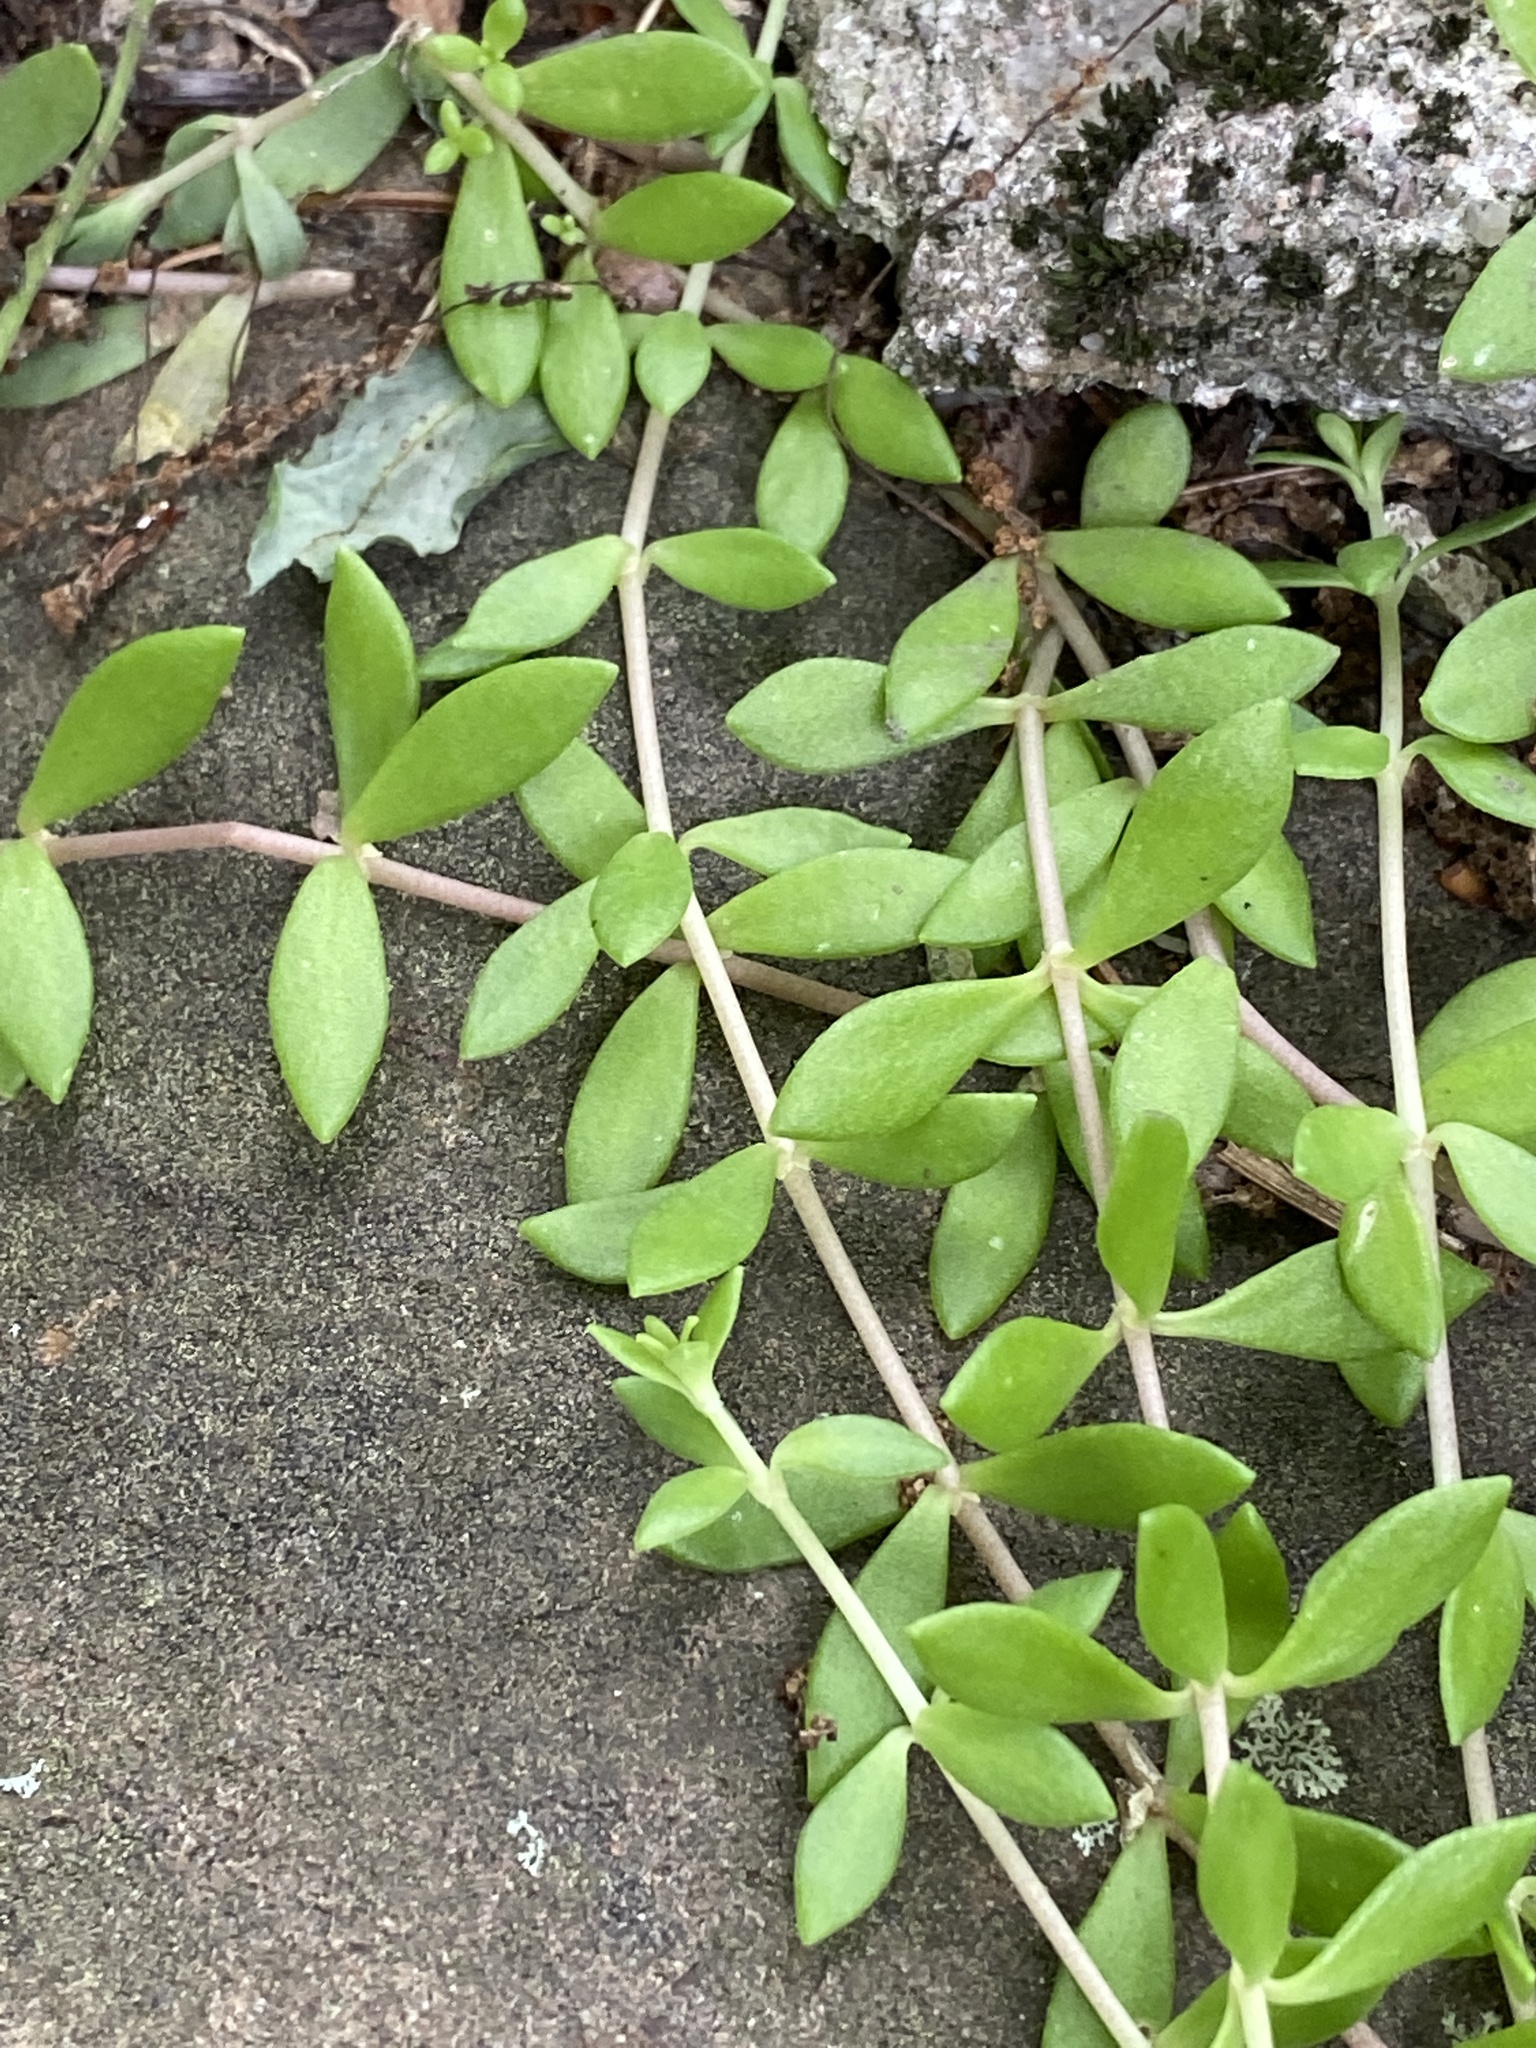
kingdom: Plantae
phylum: Tracheophyta
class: Magnoliopsida
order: Saxifragales
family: Crassulaceae
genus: Sedum
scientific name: Sedum sarmentosum
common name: Stringy stonecrop
